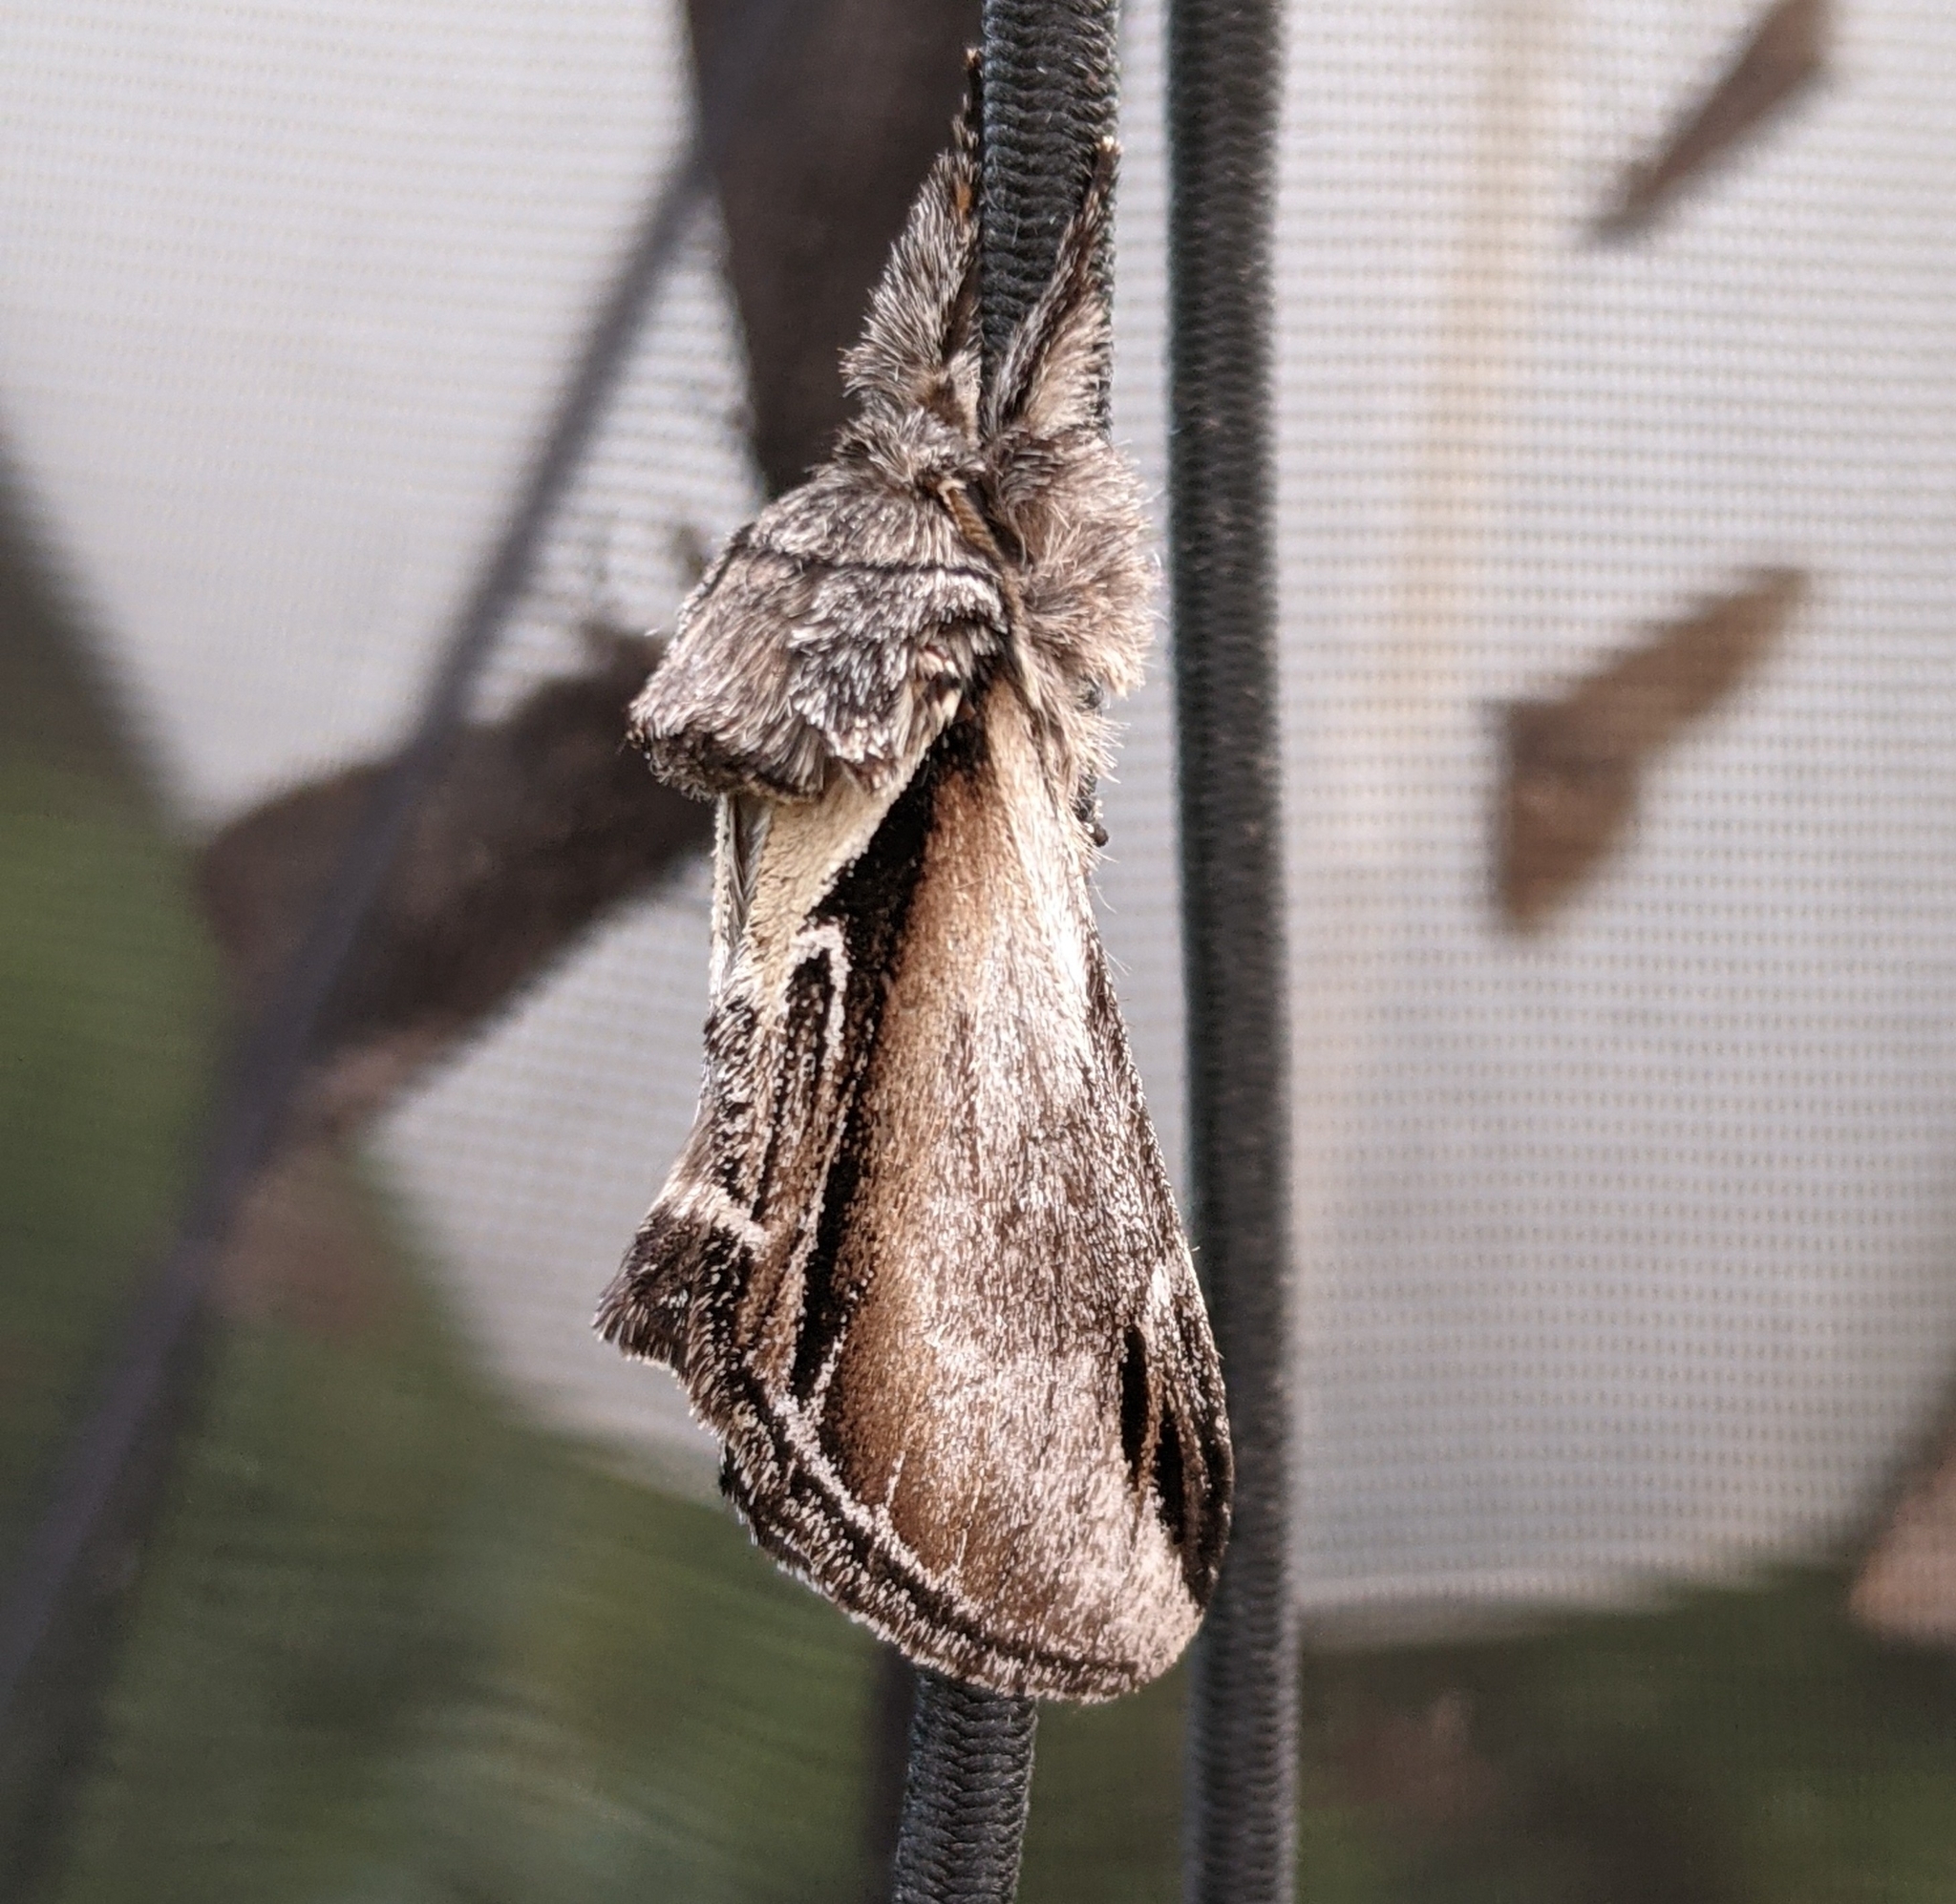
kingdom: Animalia
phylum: Arthropoda
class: Insecta
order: Lepidoptera
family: Notodontidae
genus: Pheosia
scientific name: Pheosia rimosa
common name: Black-rimmed prominent
